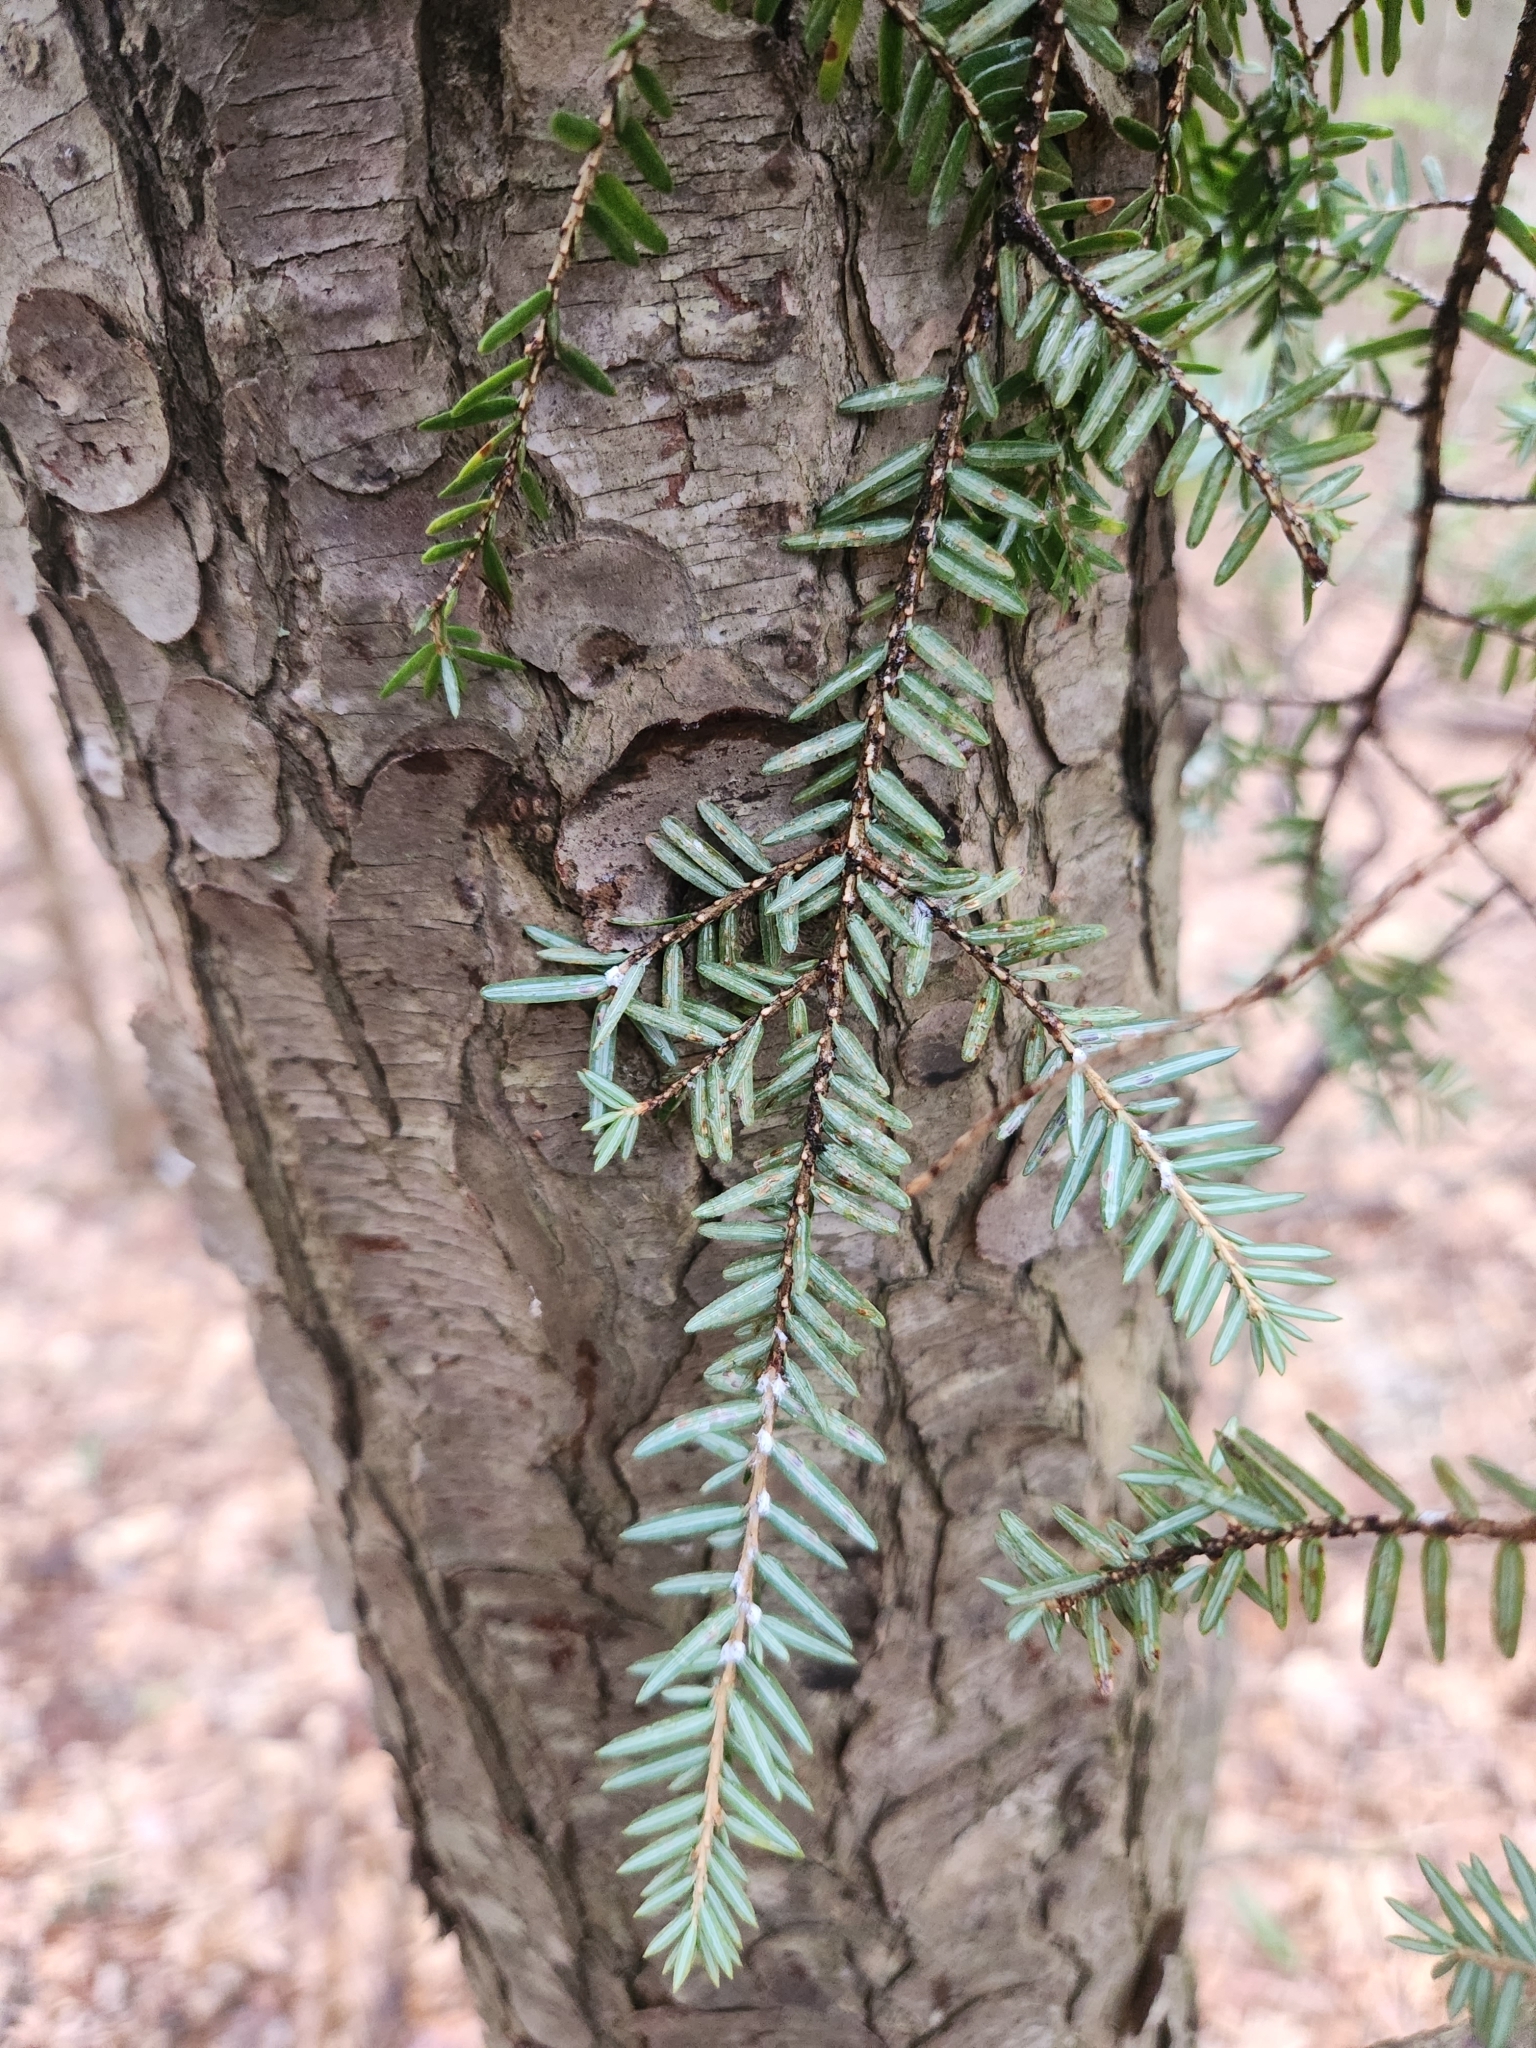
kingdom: Plantae
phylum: Tracheophyta
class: Pinopsida
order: Pinales
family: Pinaceae
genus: Tsuga
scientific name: Tsuga canadensis
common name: Eastern hemlock
